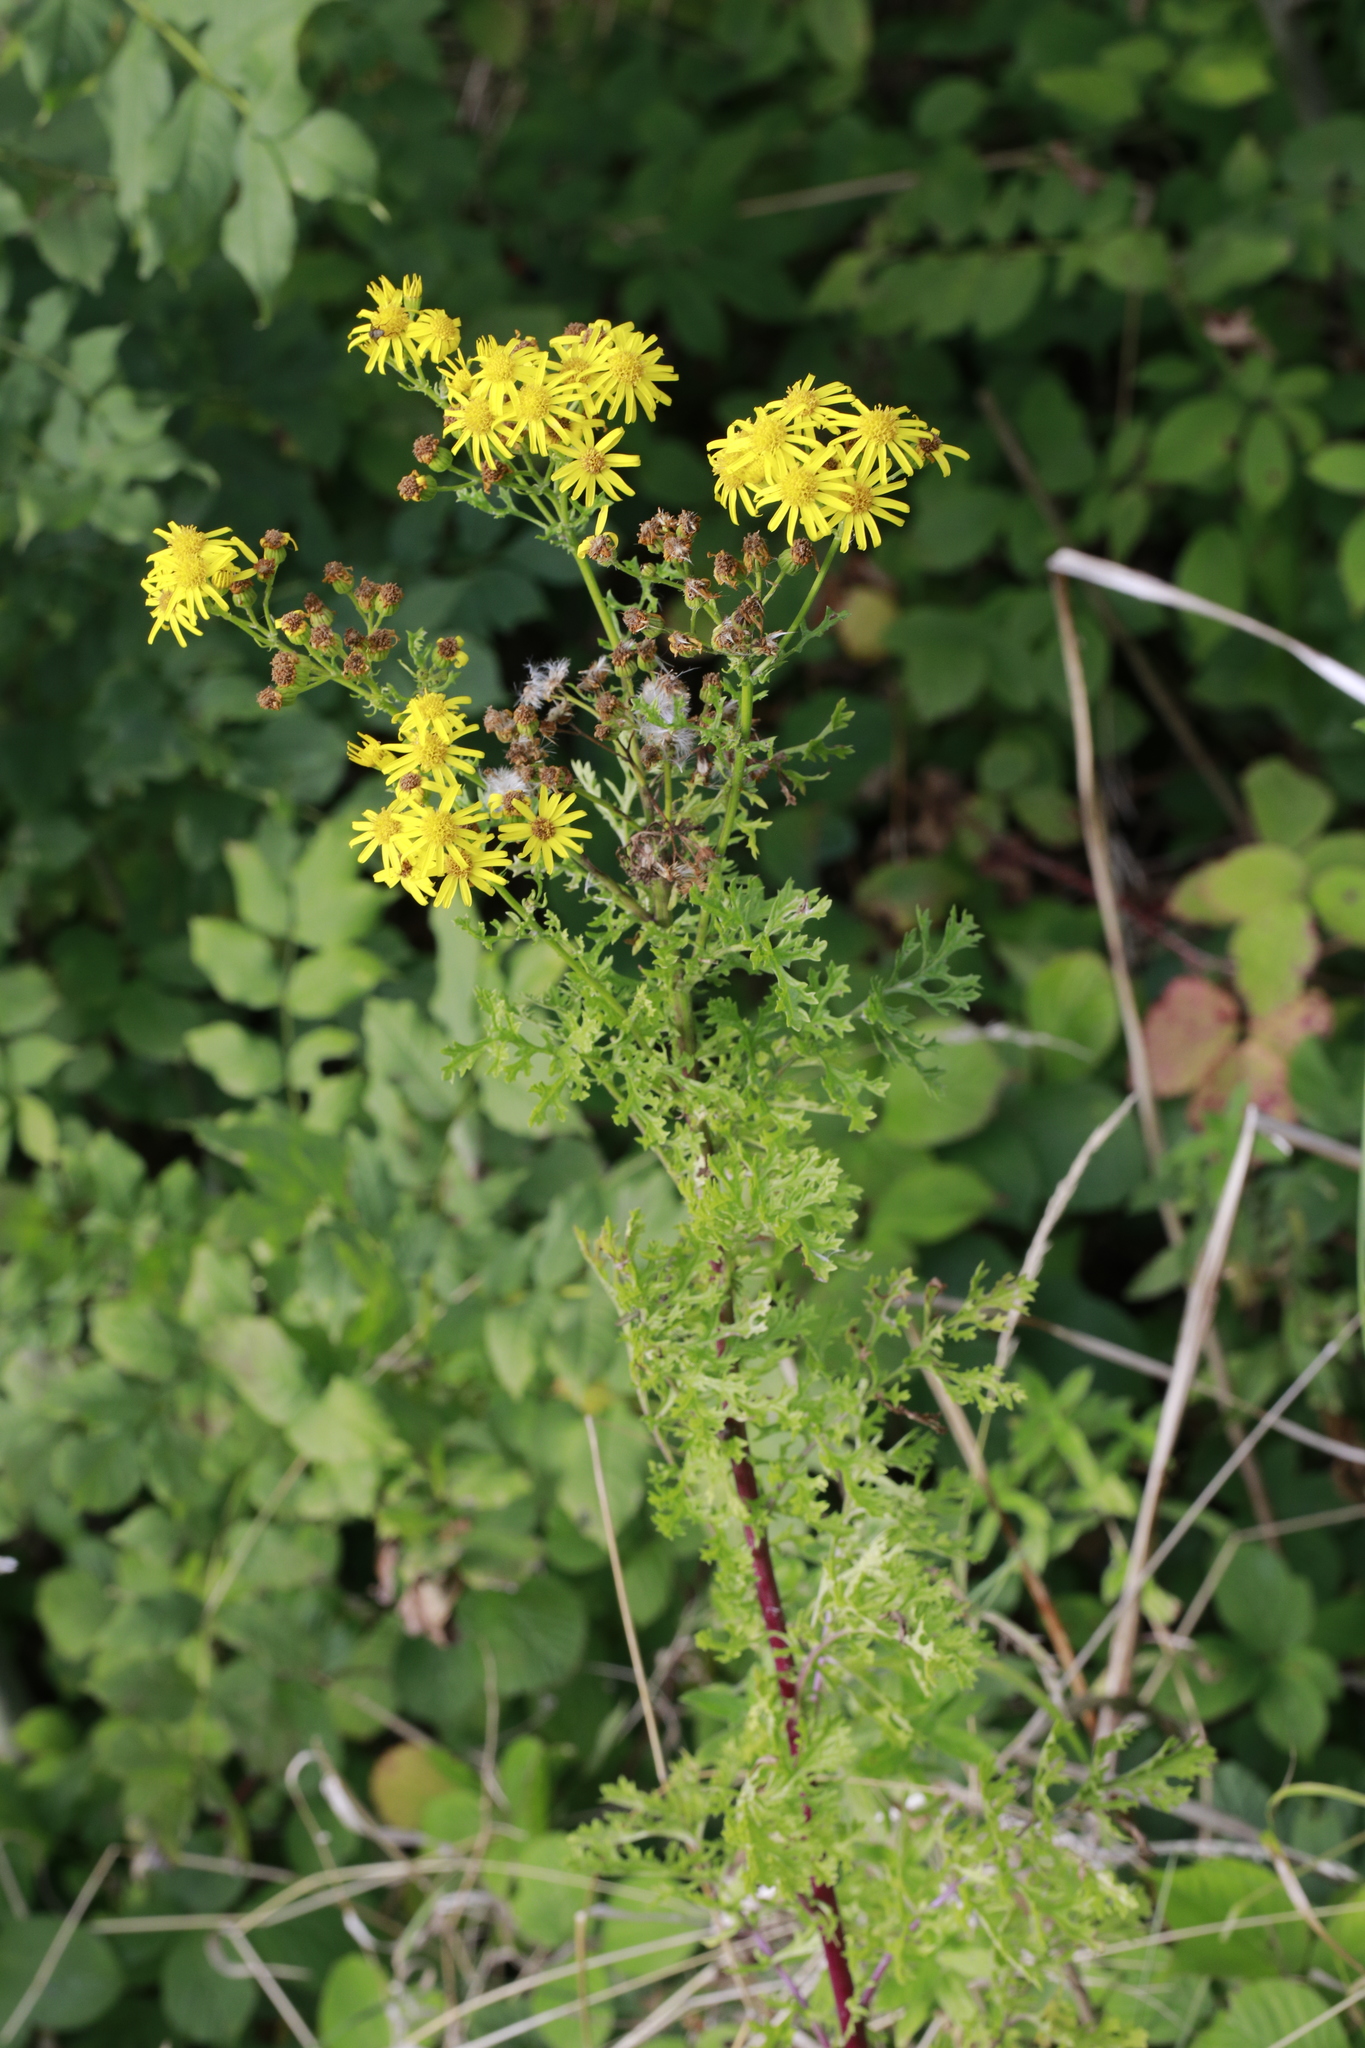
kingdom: Plantae
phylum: Tracheophyta
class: Magnoliopsida
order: Asterales
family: Asteraceae
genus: Jacobaea
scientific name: Jacobaea vulgaris
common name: Stinking willie
